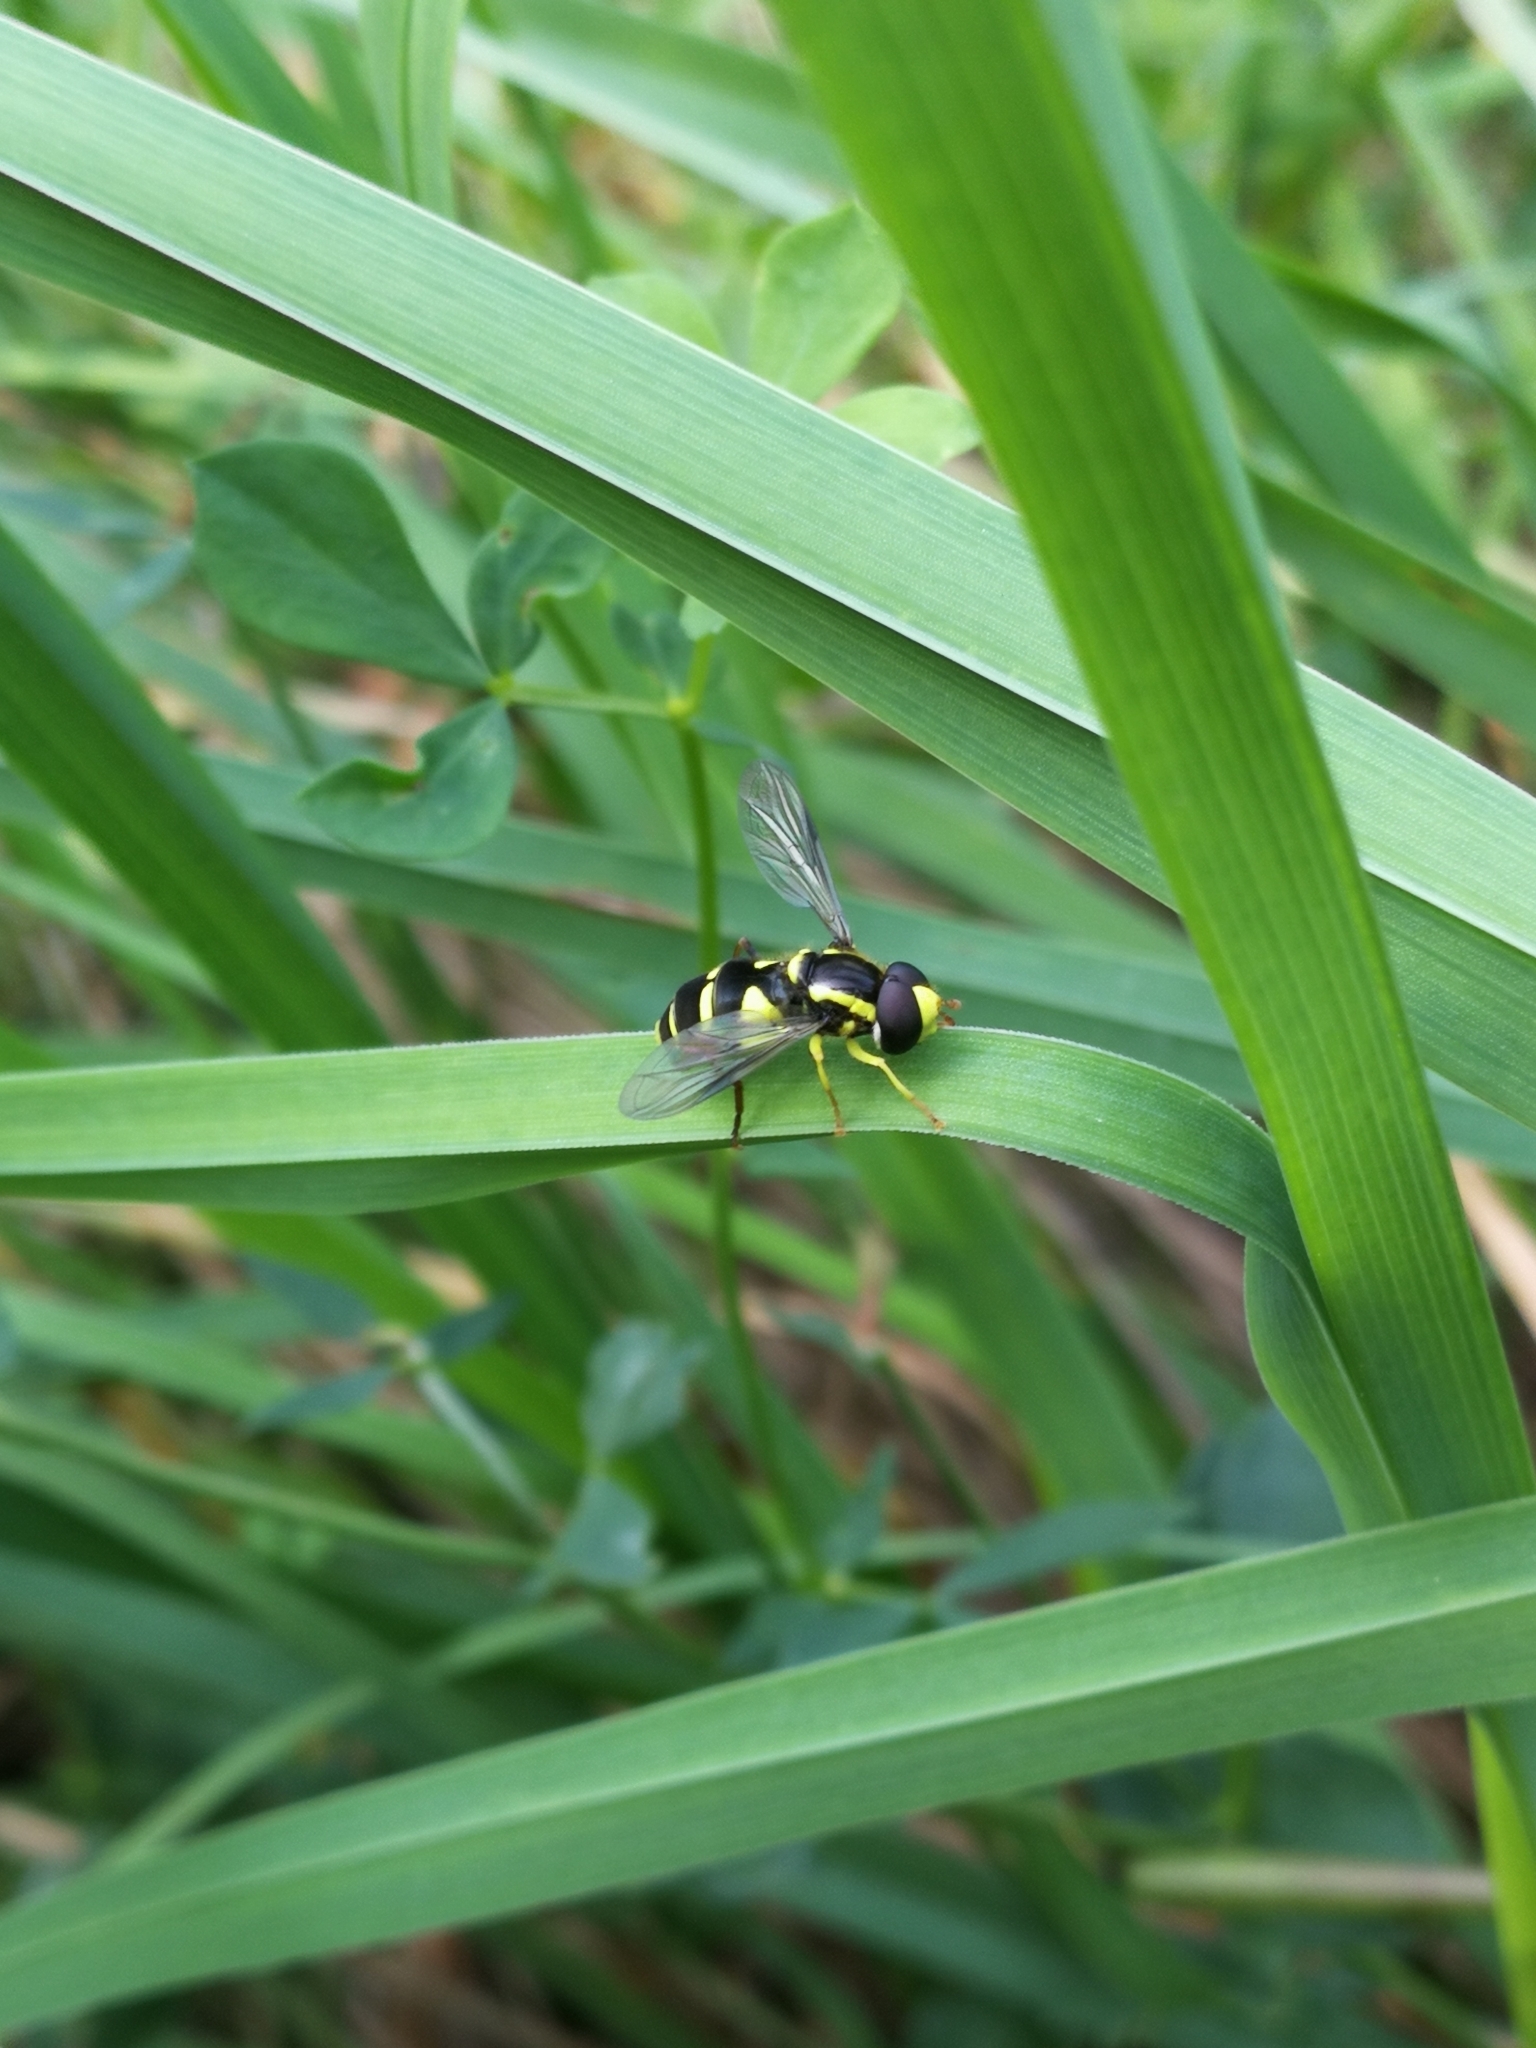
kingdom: Animalia
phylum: Arthropoda
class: Insecta
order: Diptera
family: Syrphidae
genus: Philhelius
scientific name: Philhelius dives
